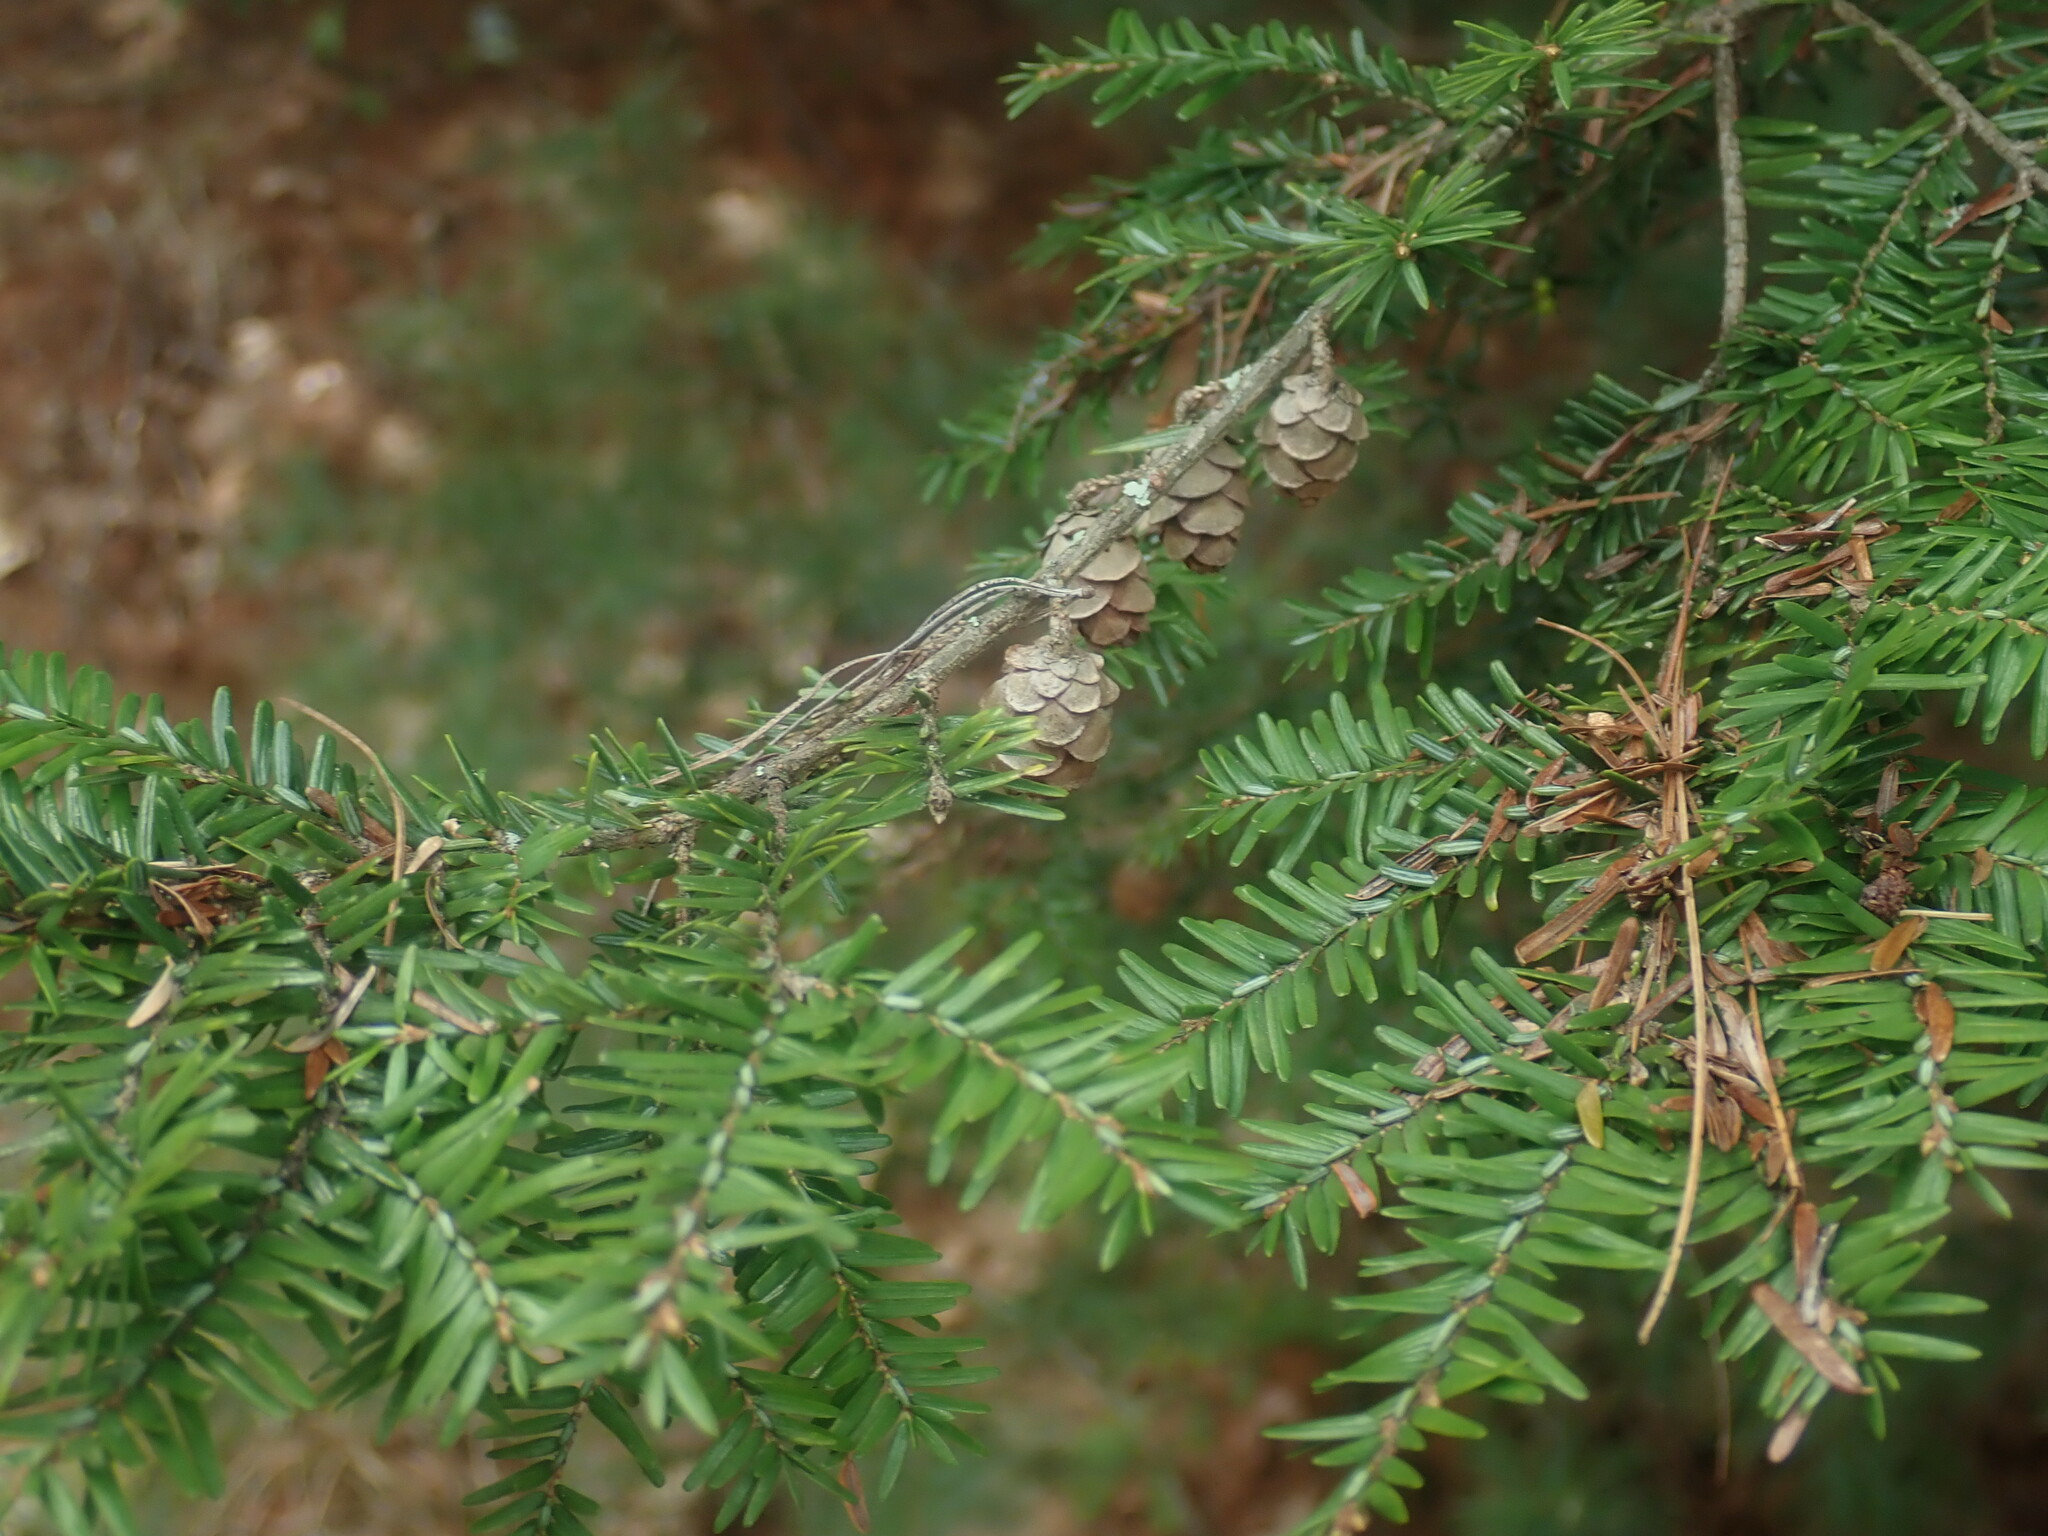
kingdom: Plantae
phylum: Tracheophyta
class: Pinopsida
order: Pinales
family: Pinaceae
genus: Tsuga
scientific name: Tsuga canadensis
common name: Eastern hemlock
